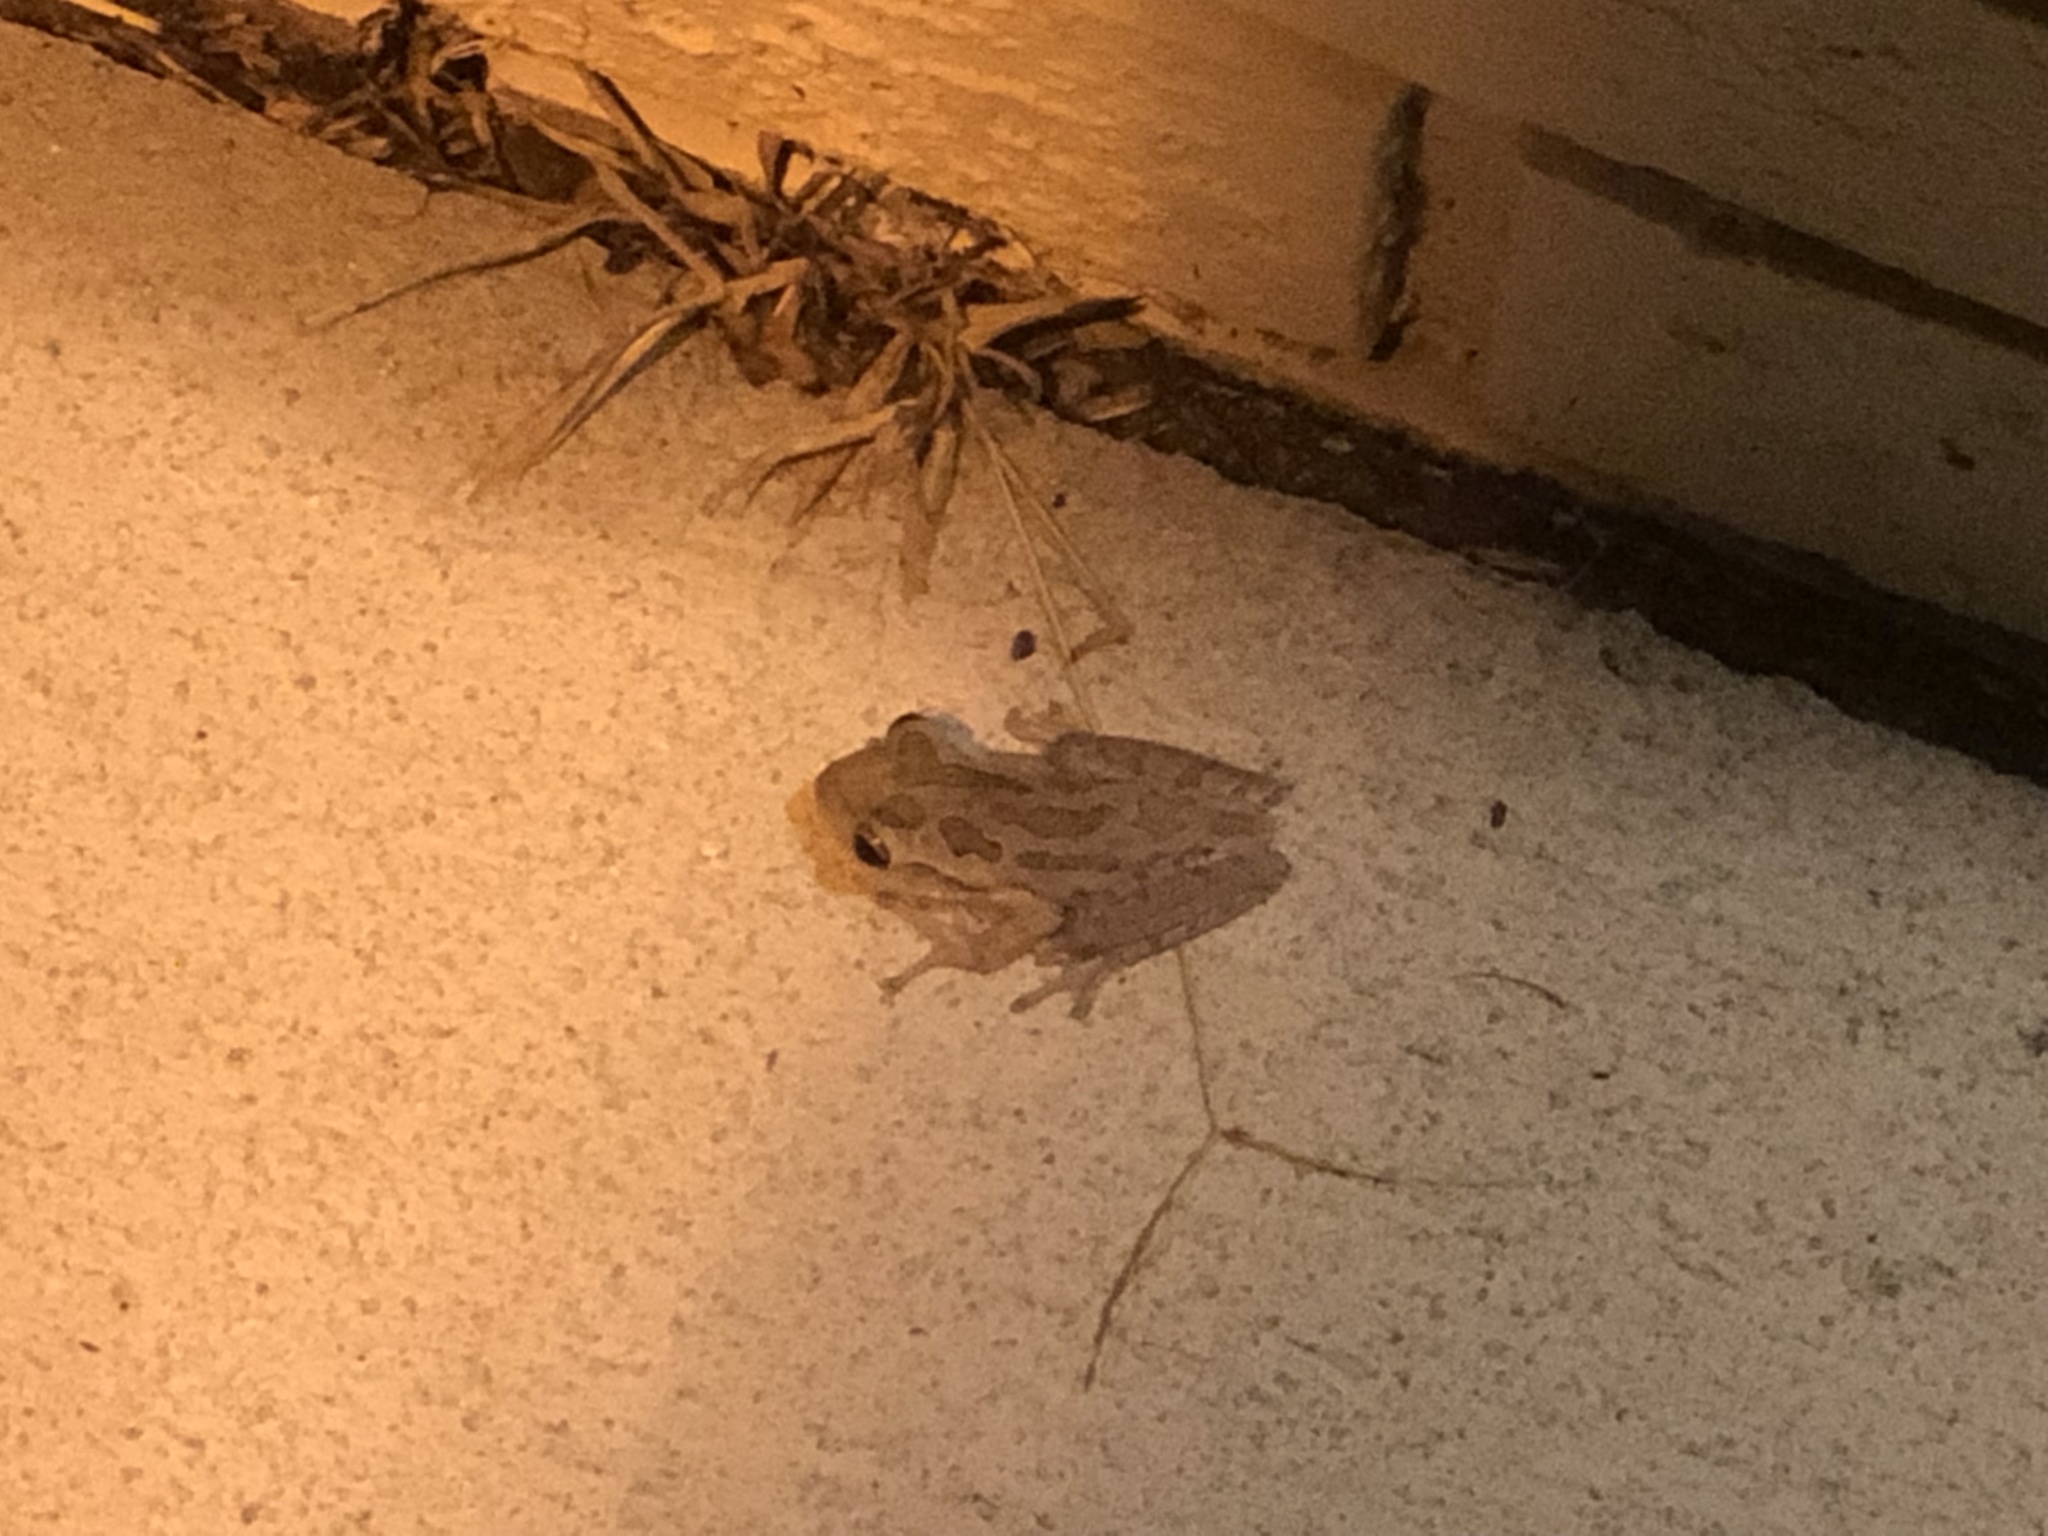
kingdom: Animalia
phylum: Chordata
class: Amphibia
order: Anura
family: Hylidae
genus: Osteopilus
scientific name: Osteopilus septentrionalis
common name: Cuban treefrog
